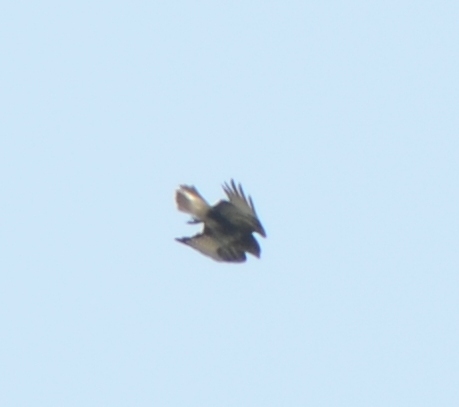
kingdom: Animalia
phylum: Chordata
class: Aves
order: Accipitriformes
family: Accipitridae
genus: Buteo
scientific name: Buteo buteo
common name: Common buzzard
